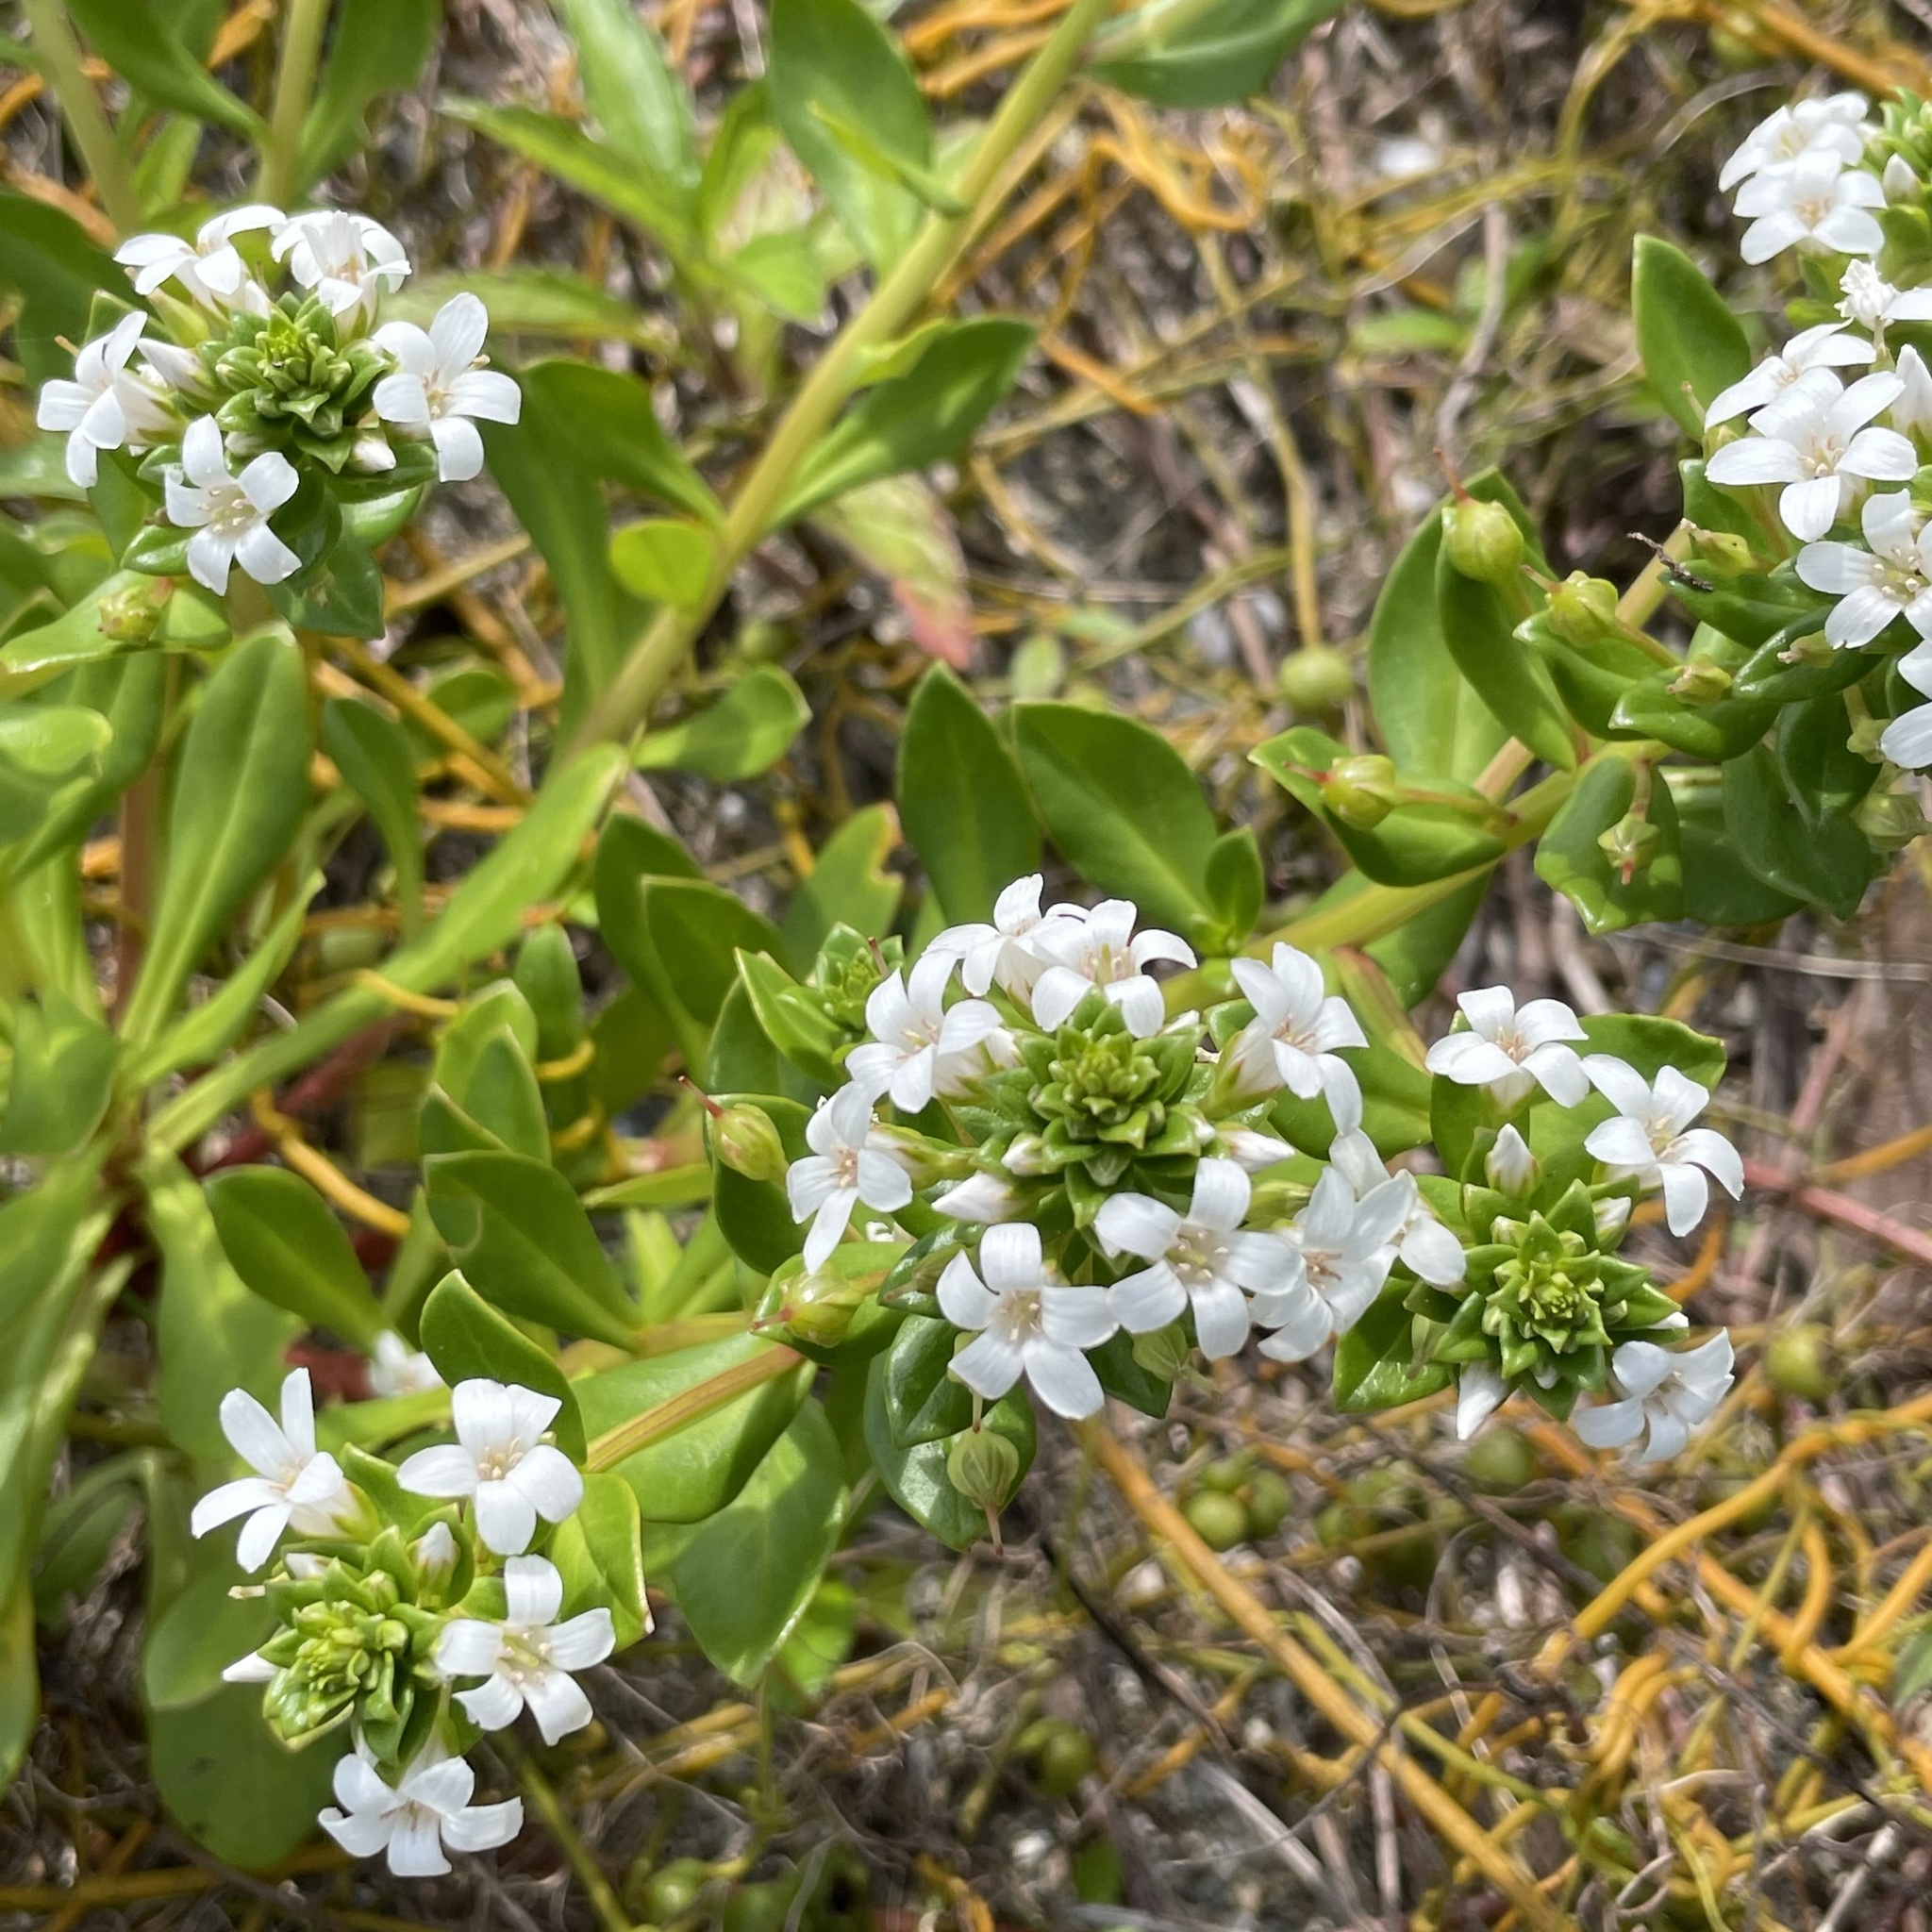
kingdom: Plantae
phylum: Tracheophyta
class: Magnoliopsida
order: Ericales
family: Primulaceae
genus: Lysimachia
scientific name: Lysimachia mauritiana
